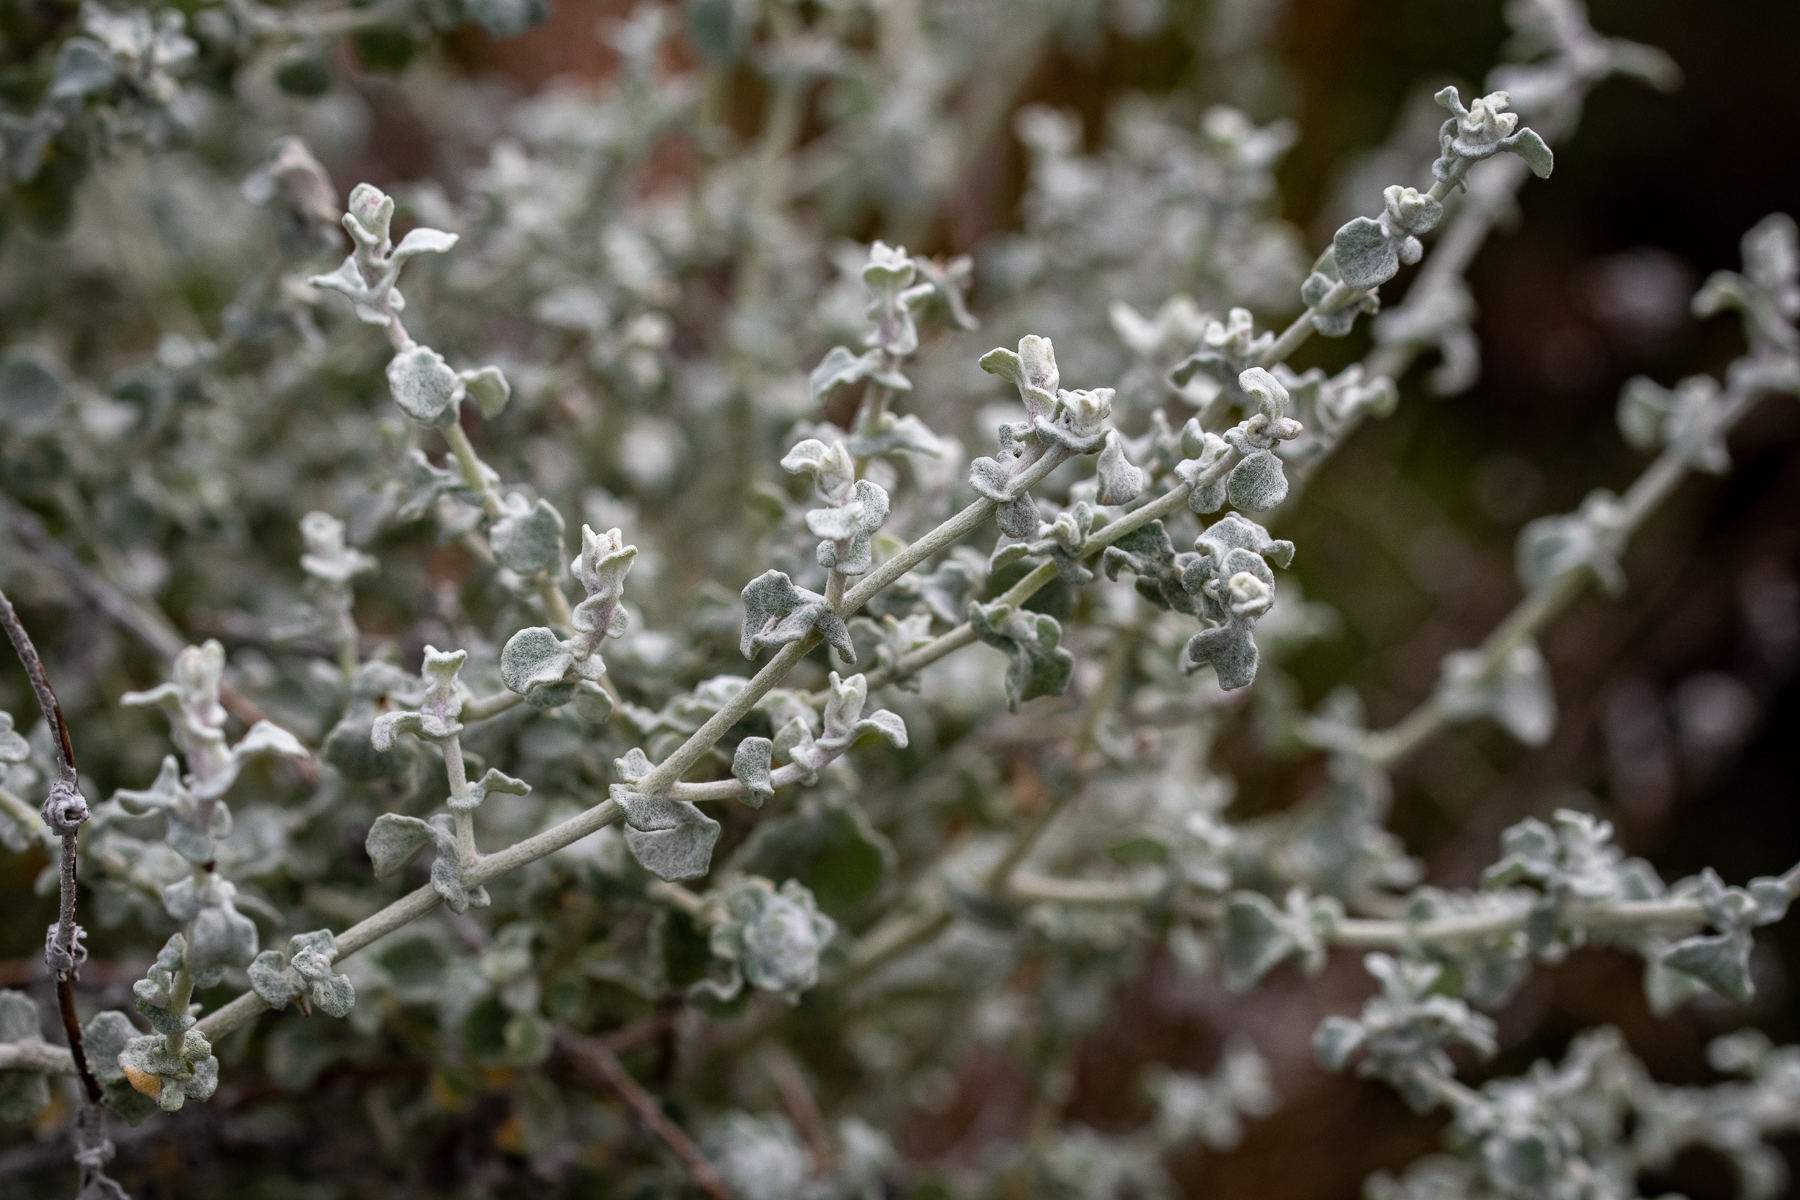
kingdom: Plantae
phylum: Tracheophyta
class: Magnoliopsida
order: Asterales
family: Asteraceae
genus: Helichrysum
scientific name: Helichrysum patulum
